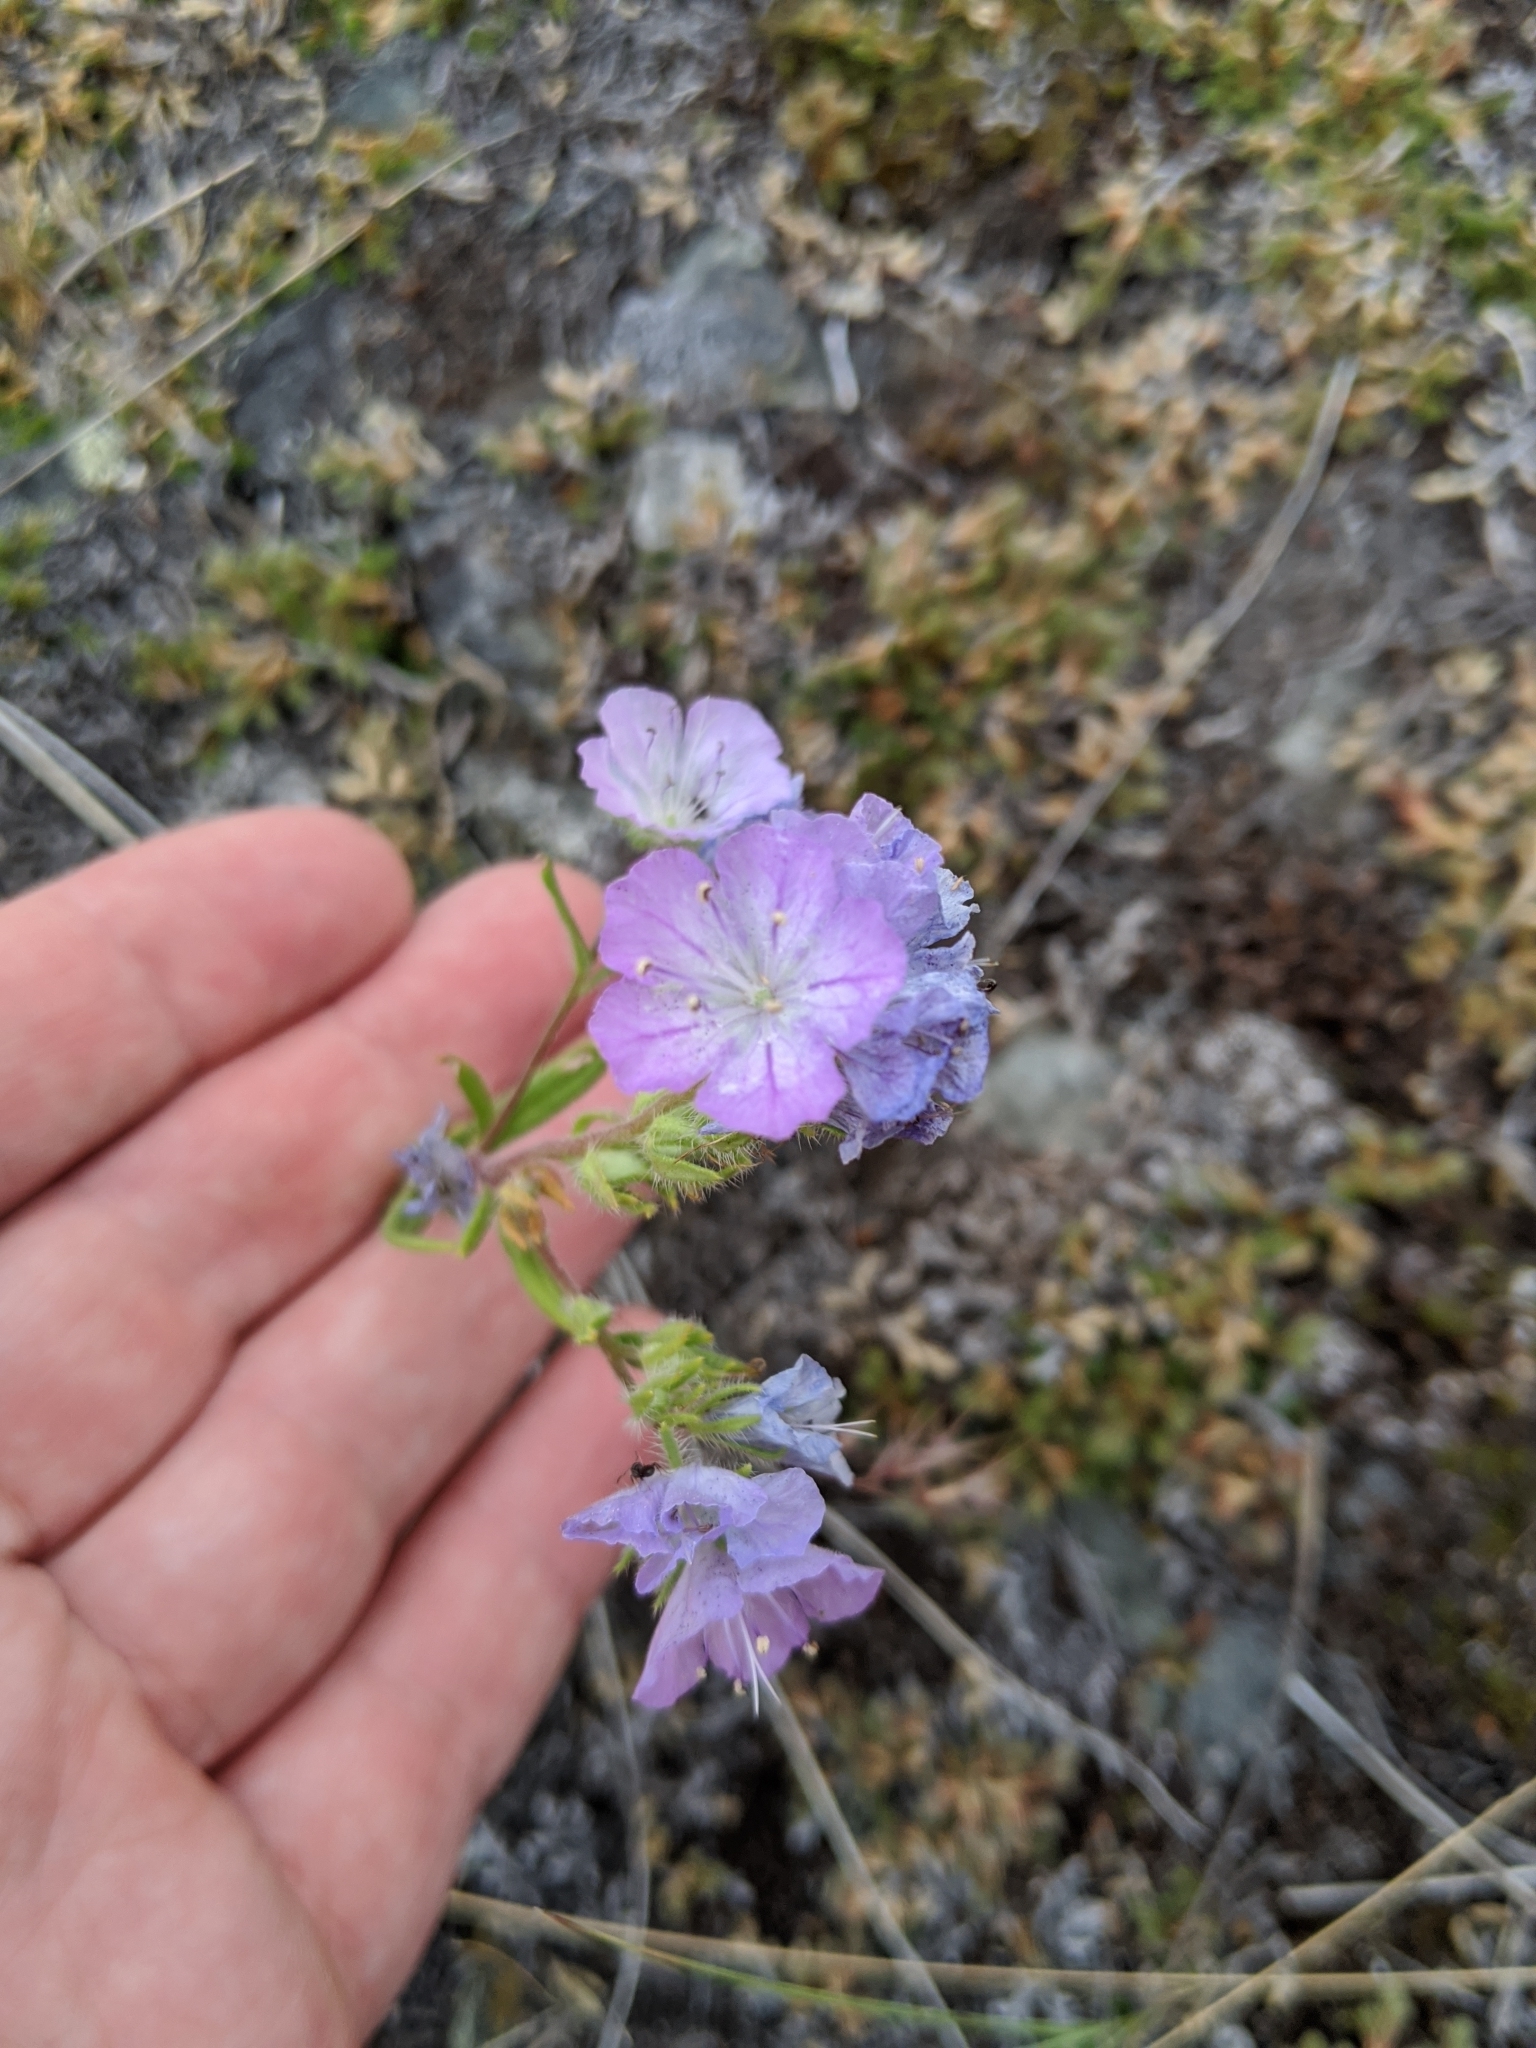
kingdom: Plantae
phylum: Tracheophyta
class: Magnoliopsida
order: Boraginales
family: Hydrophyllaceae
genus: Phacelia
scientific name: Phacelia linearis
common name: Linear-leaved phacelia
